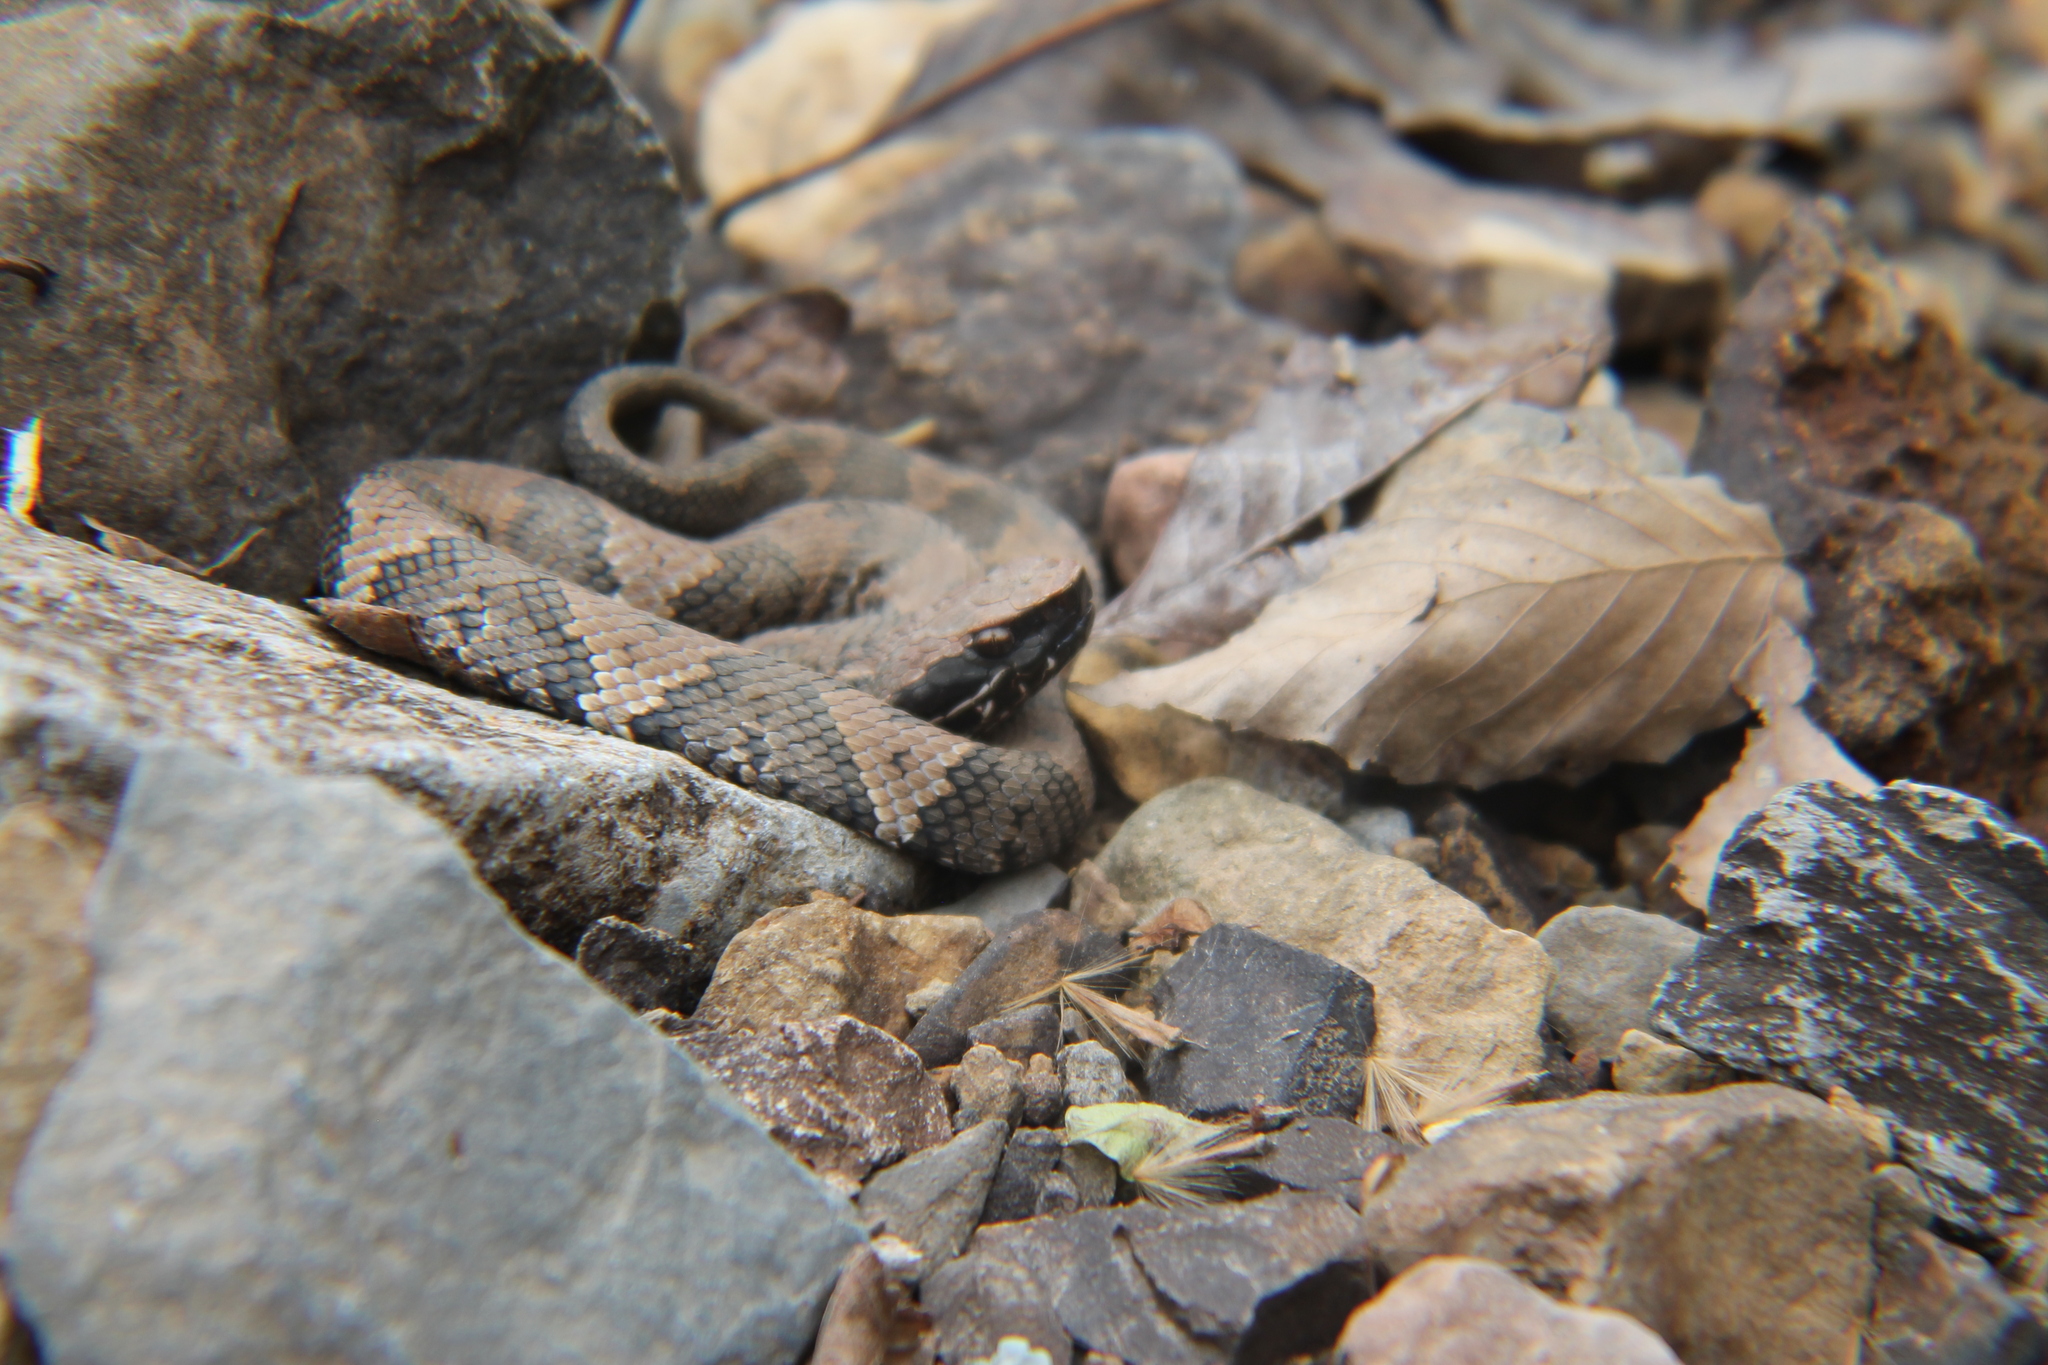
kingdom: Animalia
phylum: Chordata
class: Squamata
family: Viperidae
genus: Agkistrodon
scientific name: Agkistrodon piscivorus
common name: Cottonmouth
